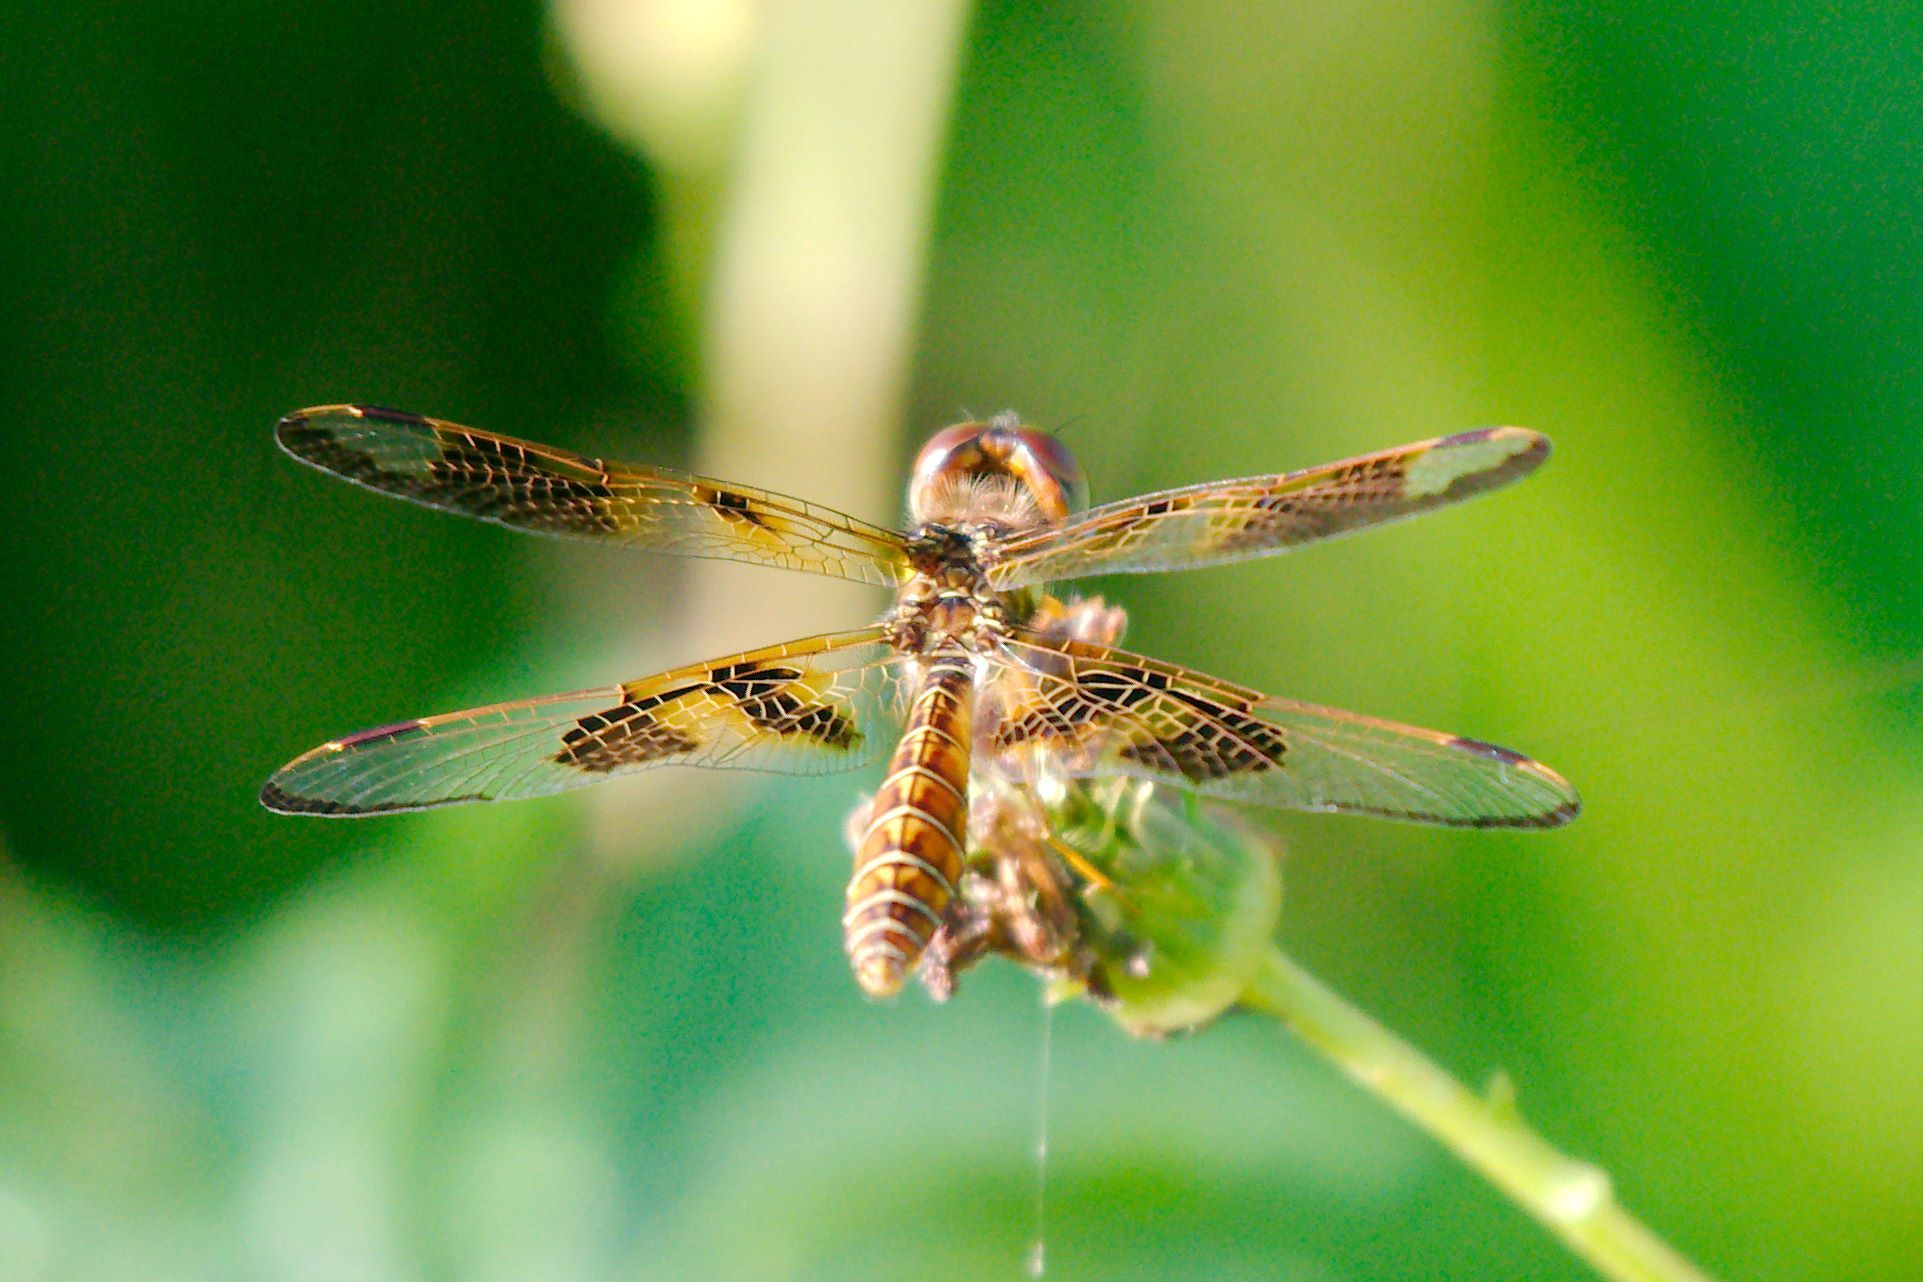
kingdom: Animalia
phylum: Arthropoda
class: Insecta
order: Odonata
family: Libellulidae
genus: Perithemis
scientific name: Perithemis tenera
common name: Eastern amberwing
